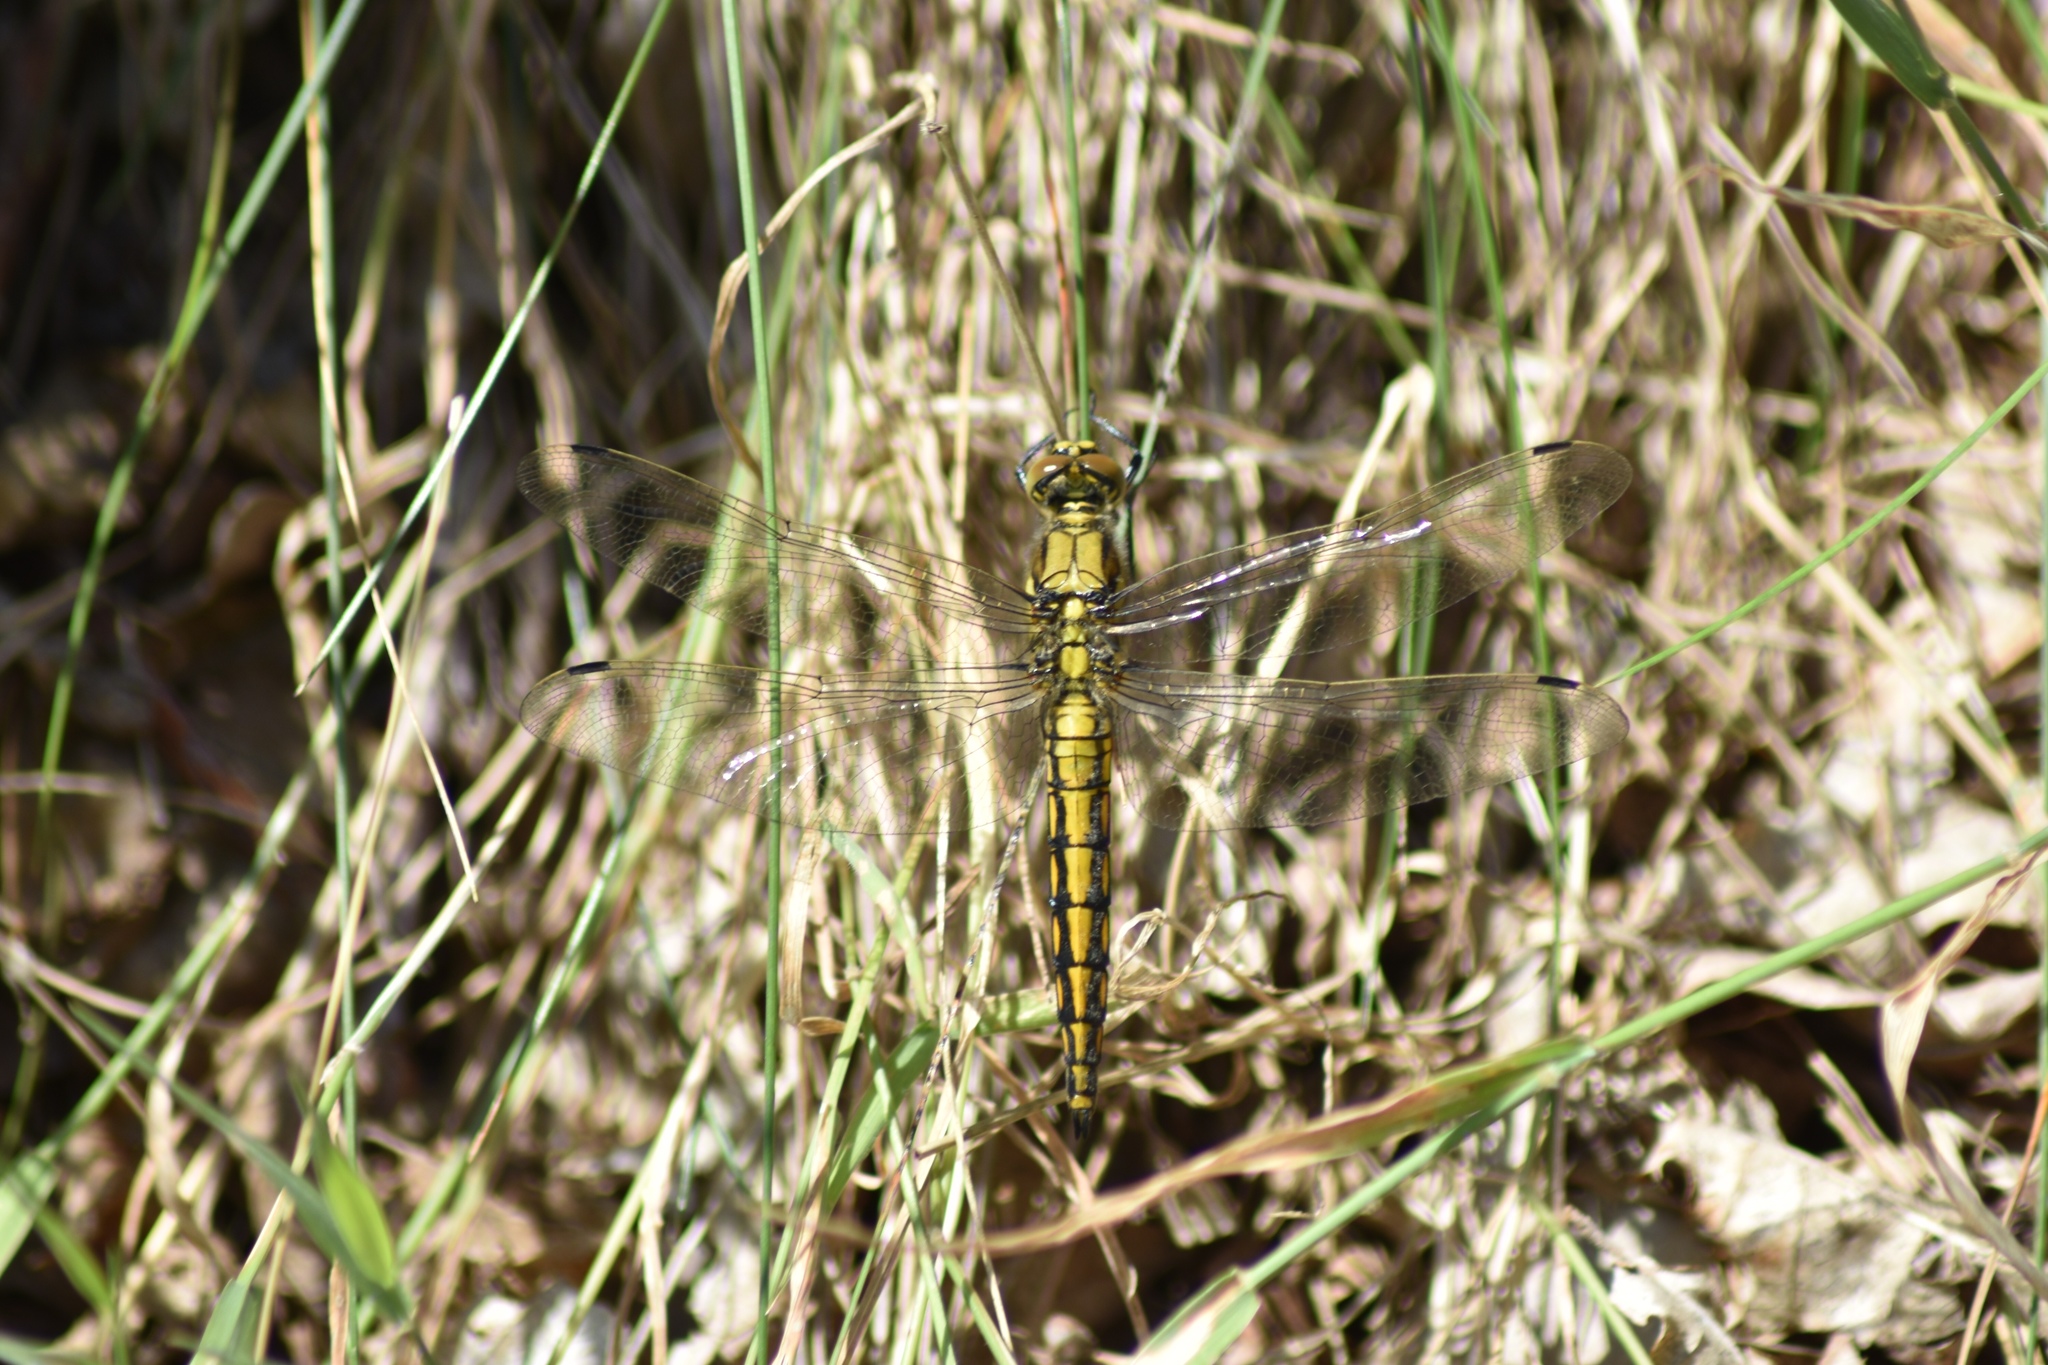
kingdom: Animalia
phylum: Arthropoda
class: Insecta
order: Odonata
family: Libellulidae
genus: Orthetrum
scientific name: Orthetrum cancellatum
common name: Black-tailed skimmer
